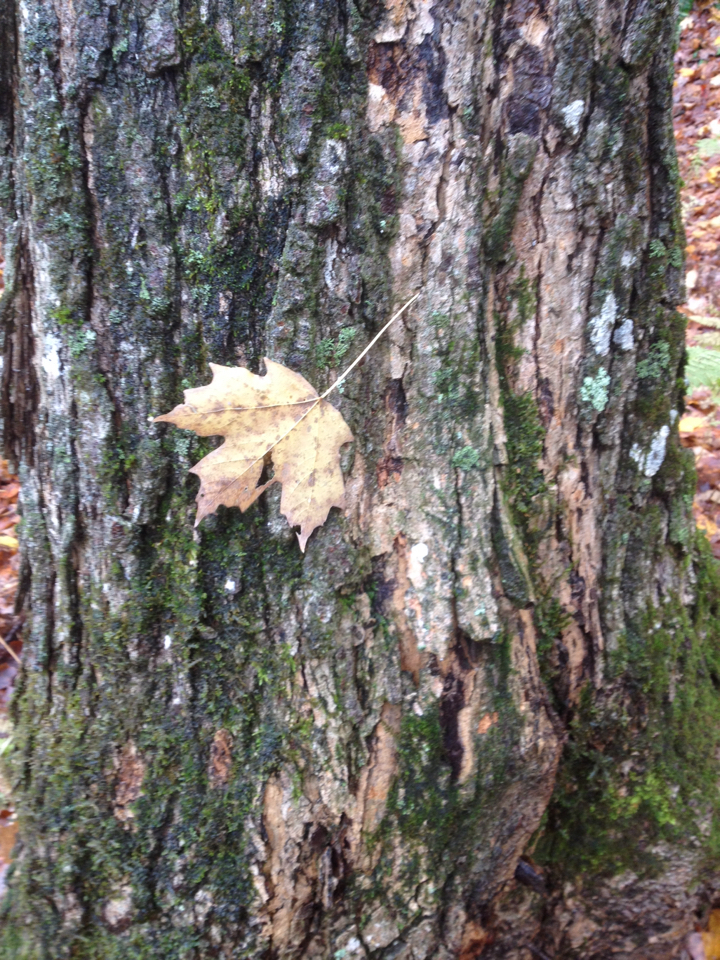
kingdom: Plantae
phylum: Tracheophyta
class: Magnoliopsida
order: Sapindales
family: Sapindaceae
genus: Acer
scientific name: Acer saccharum
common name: Sugar maple
